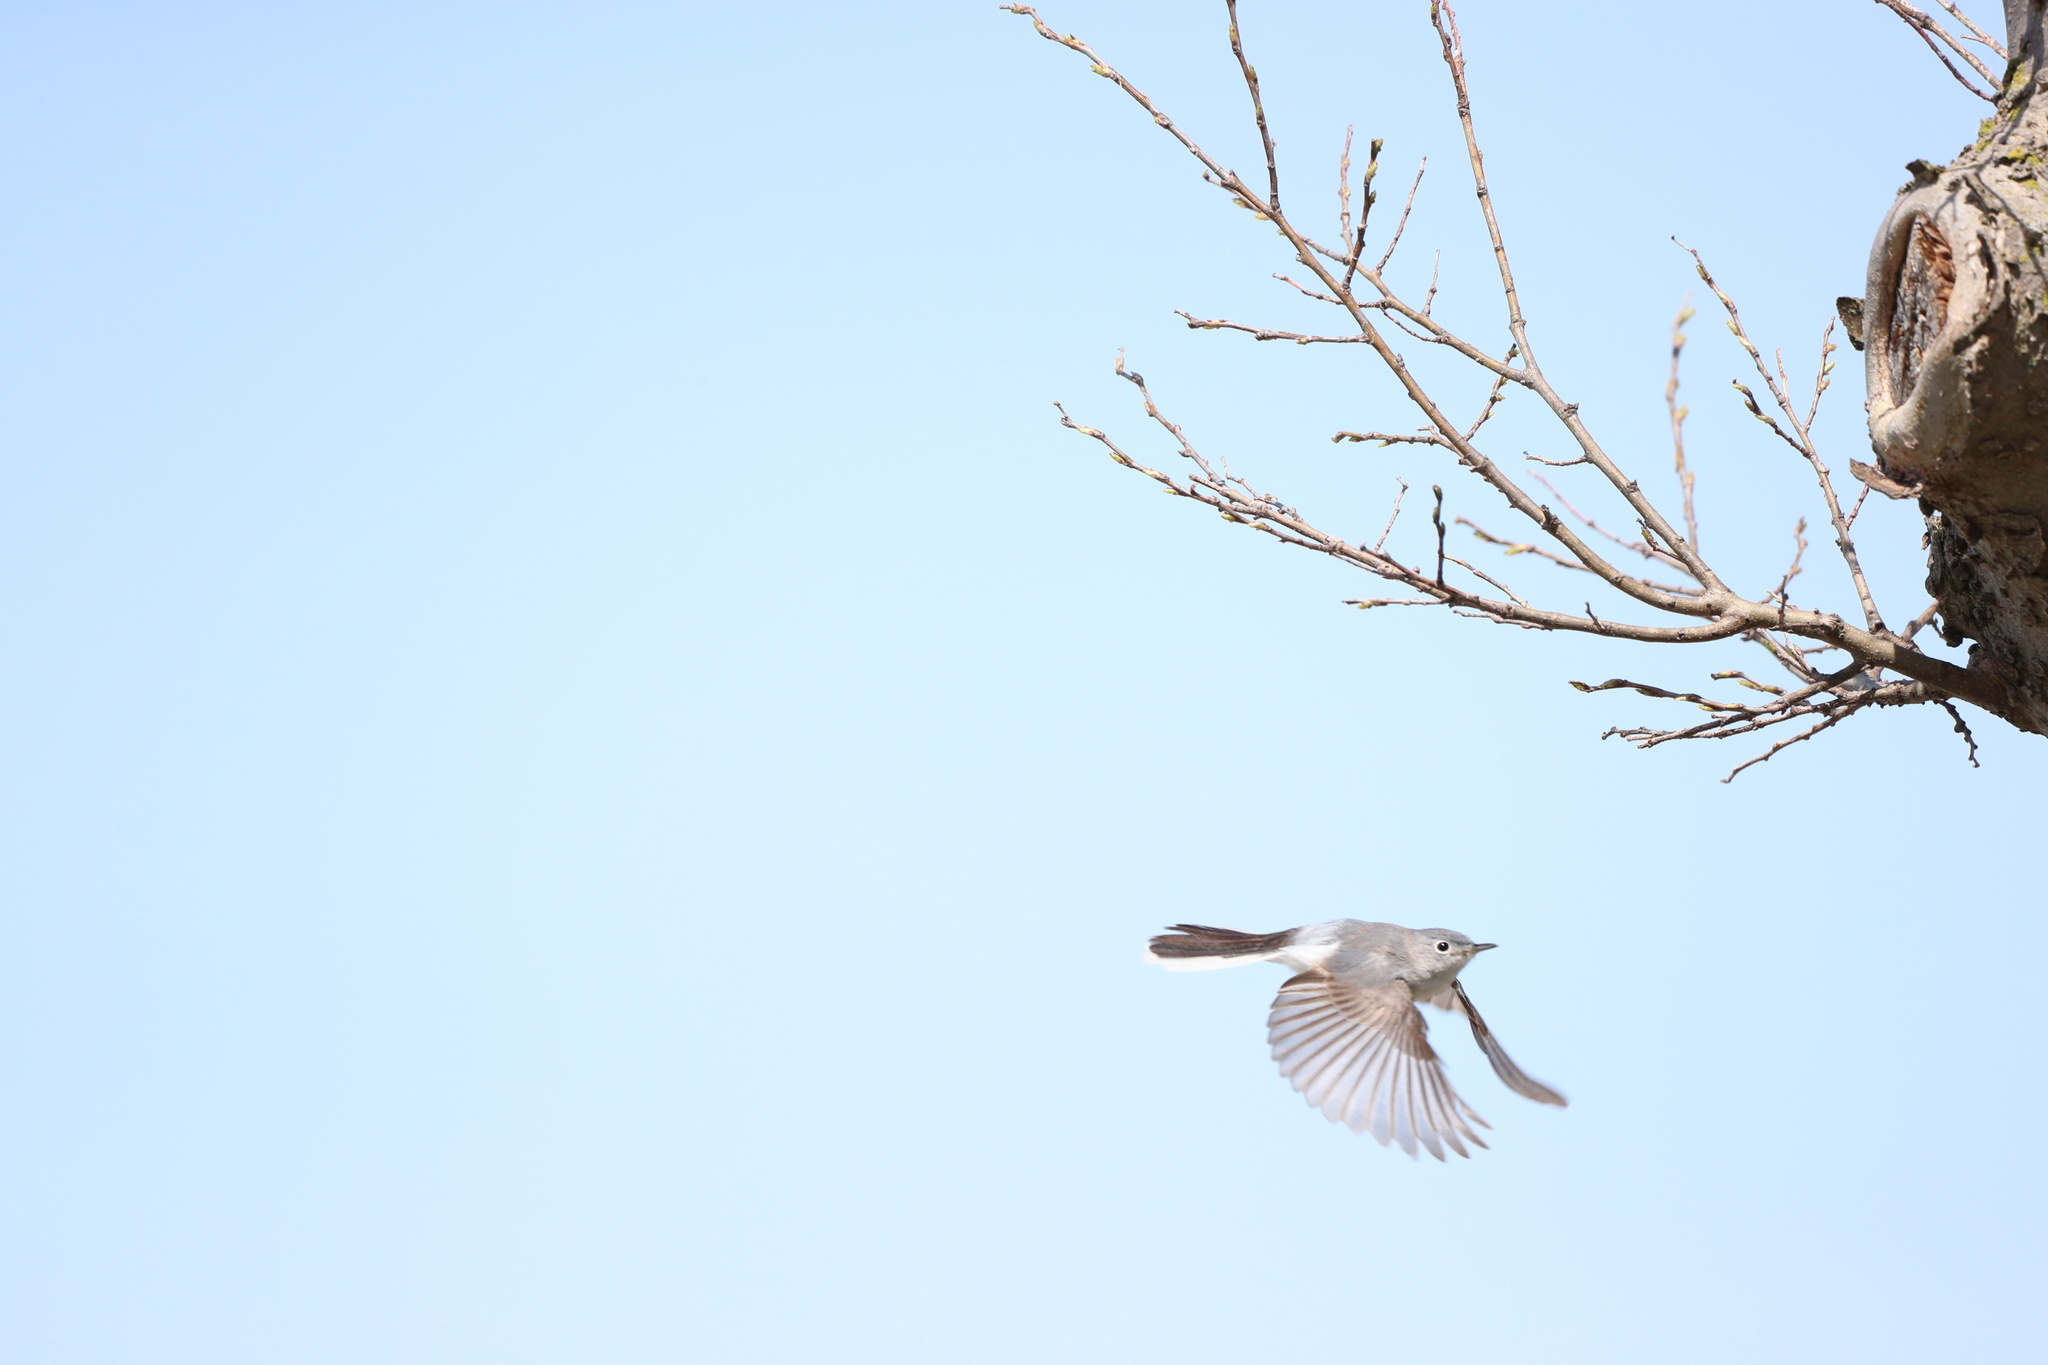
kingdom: Animalia
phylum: Chordata
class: Aves
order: Passeriformes
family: Polioptilidae
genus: Polioptila
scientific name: Polioptila caerulea
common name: Blue-gray gnatcatcher
